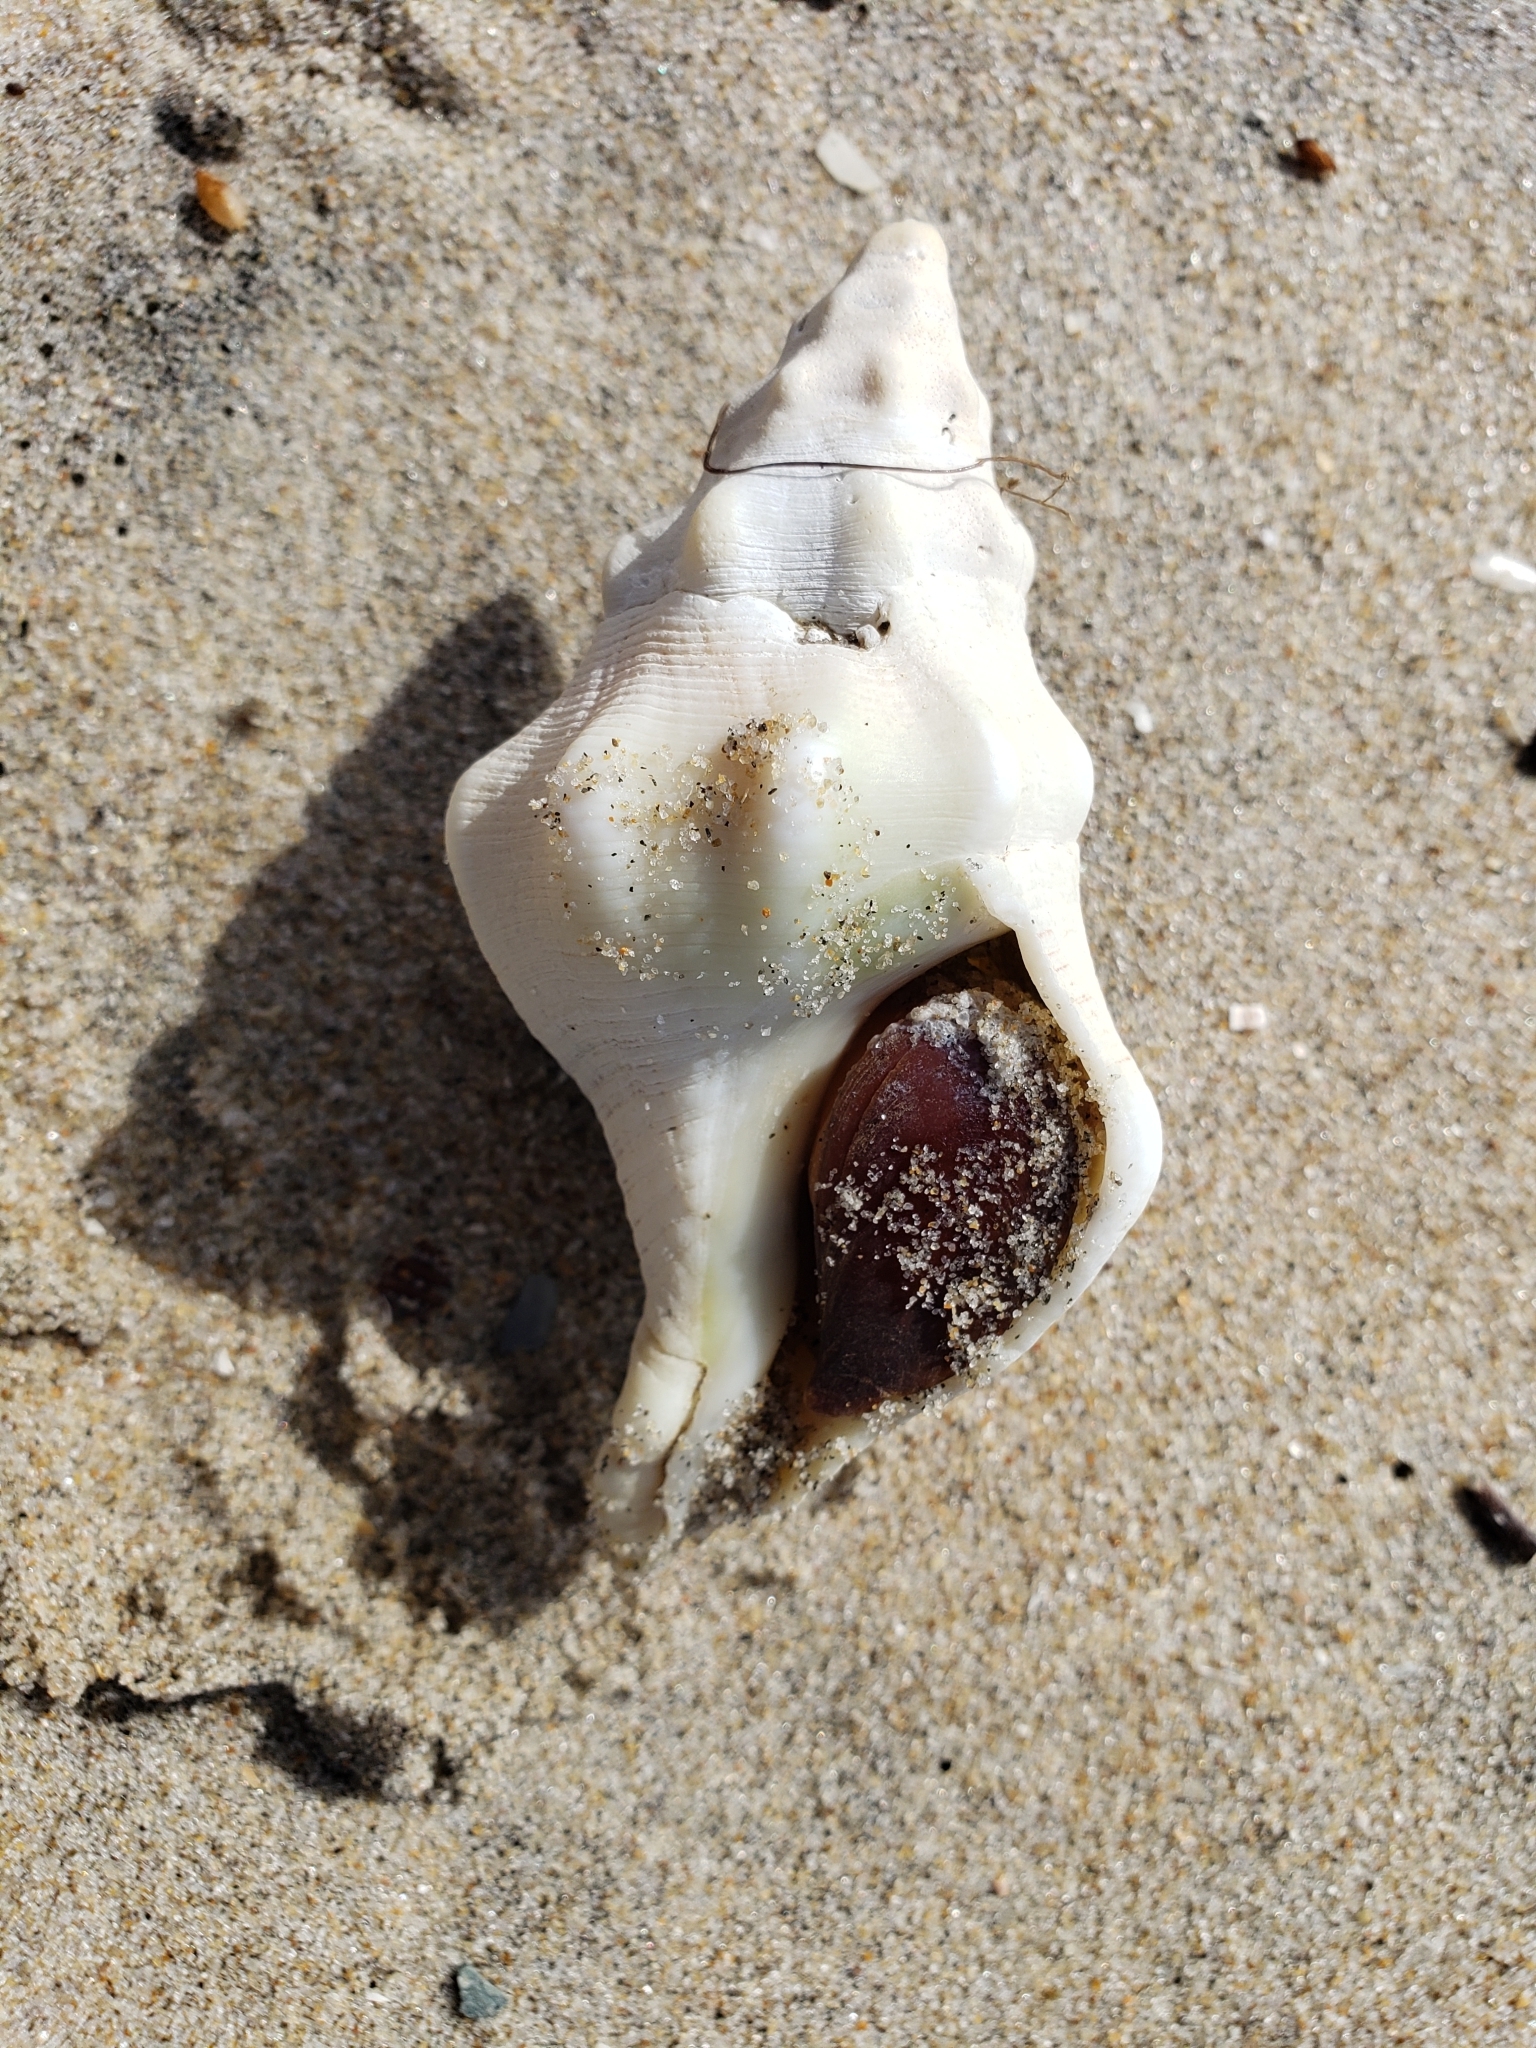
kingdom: Animalia
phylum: Mollusca
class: Gastropoda
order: Neogastropoda
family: Austrosiphonidae
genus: Kelletia
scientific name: Kelletia kelletii
